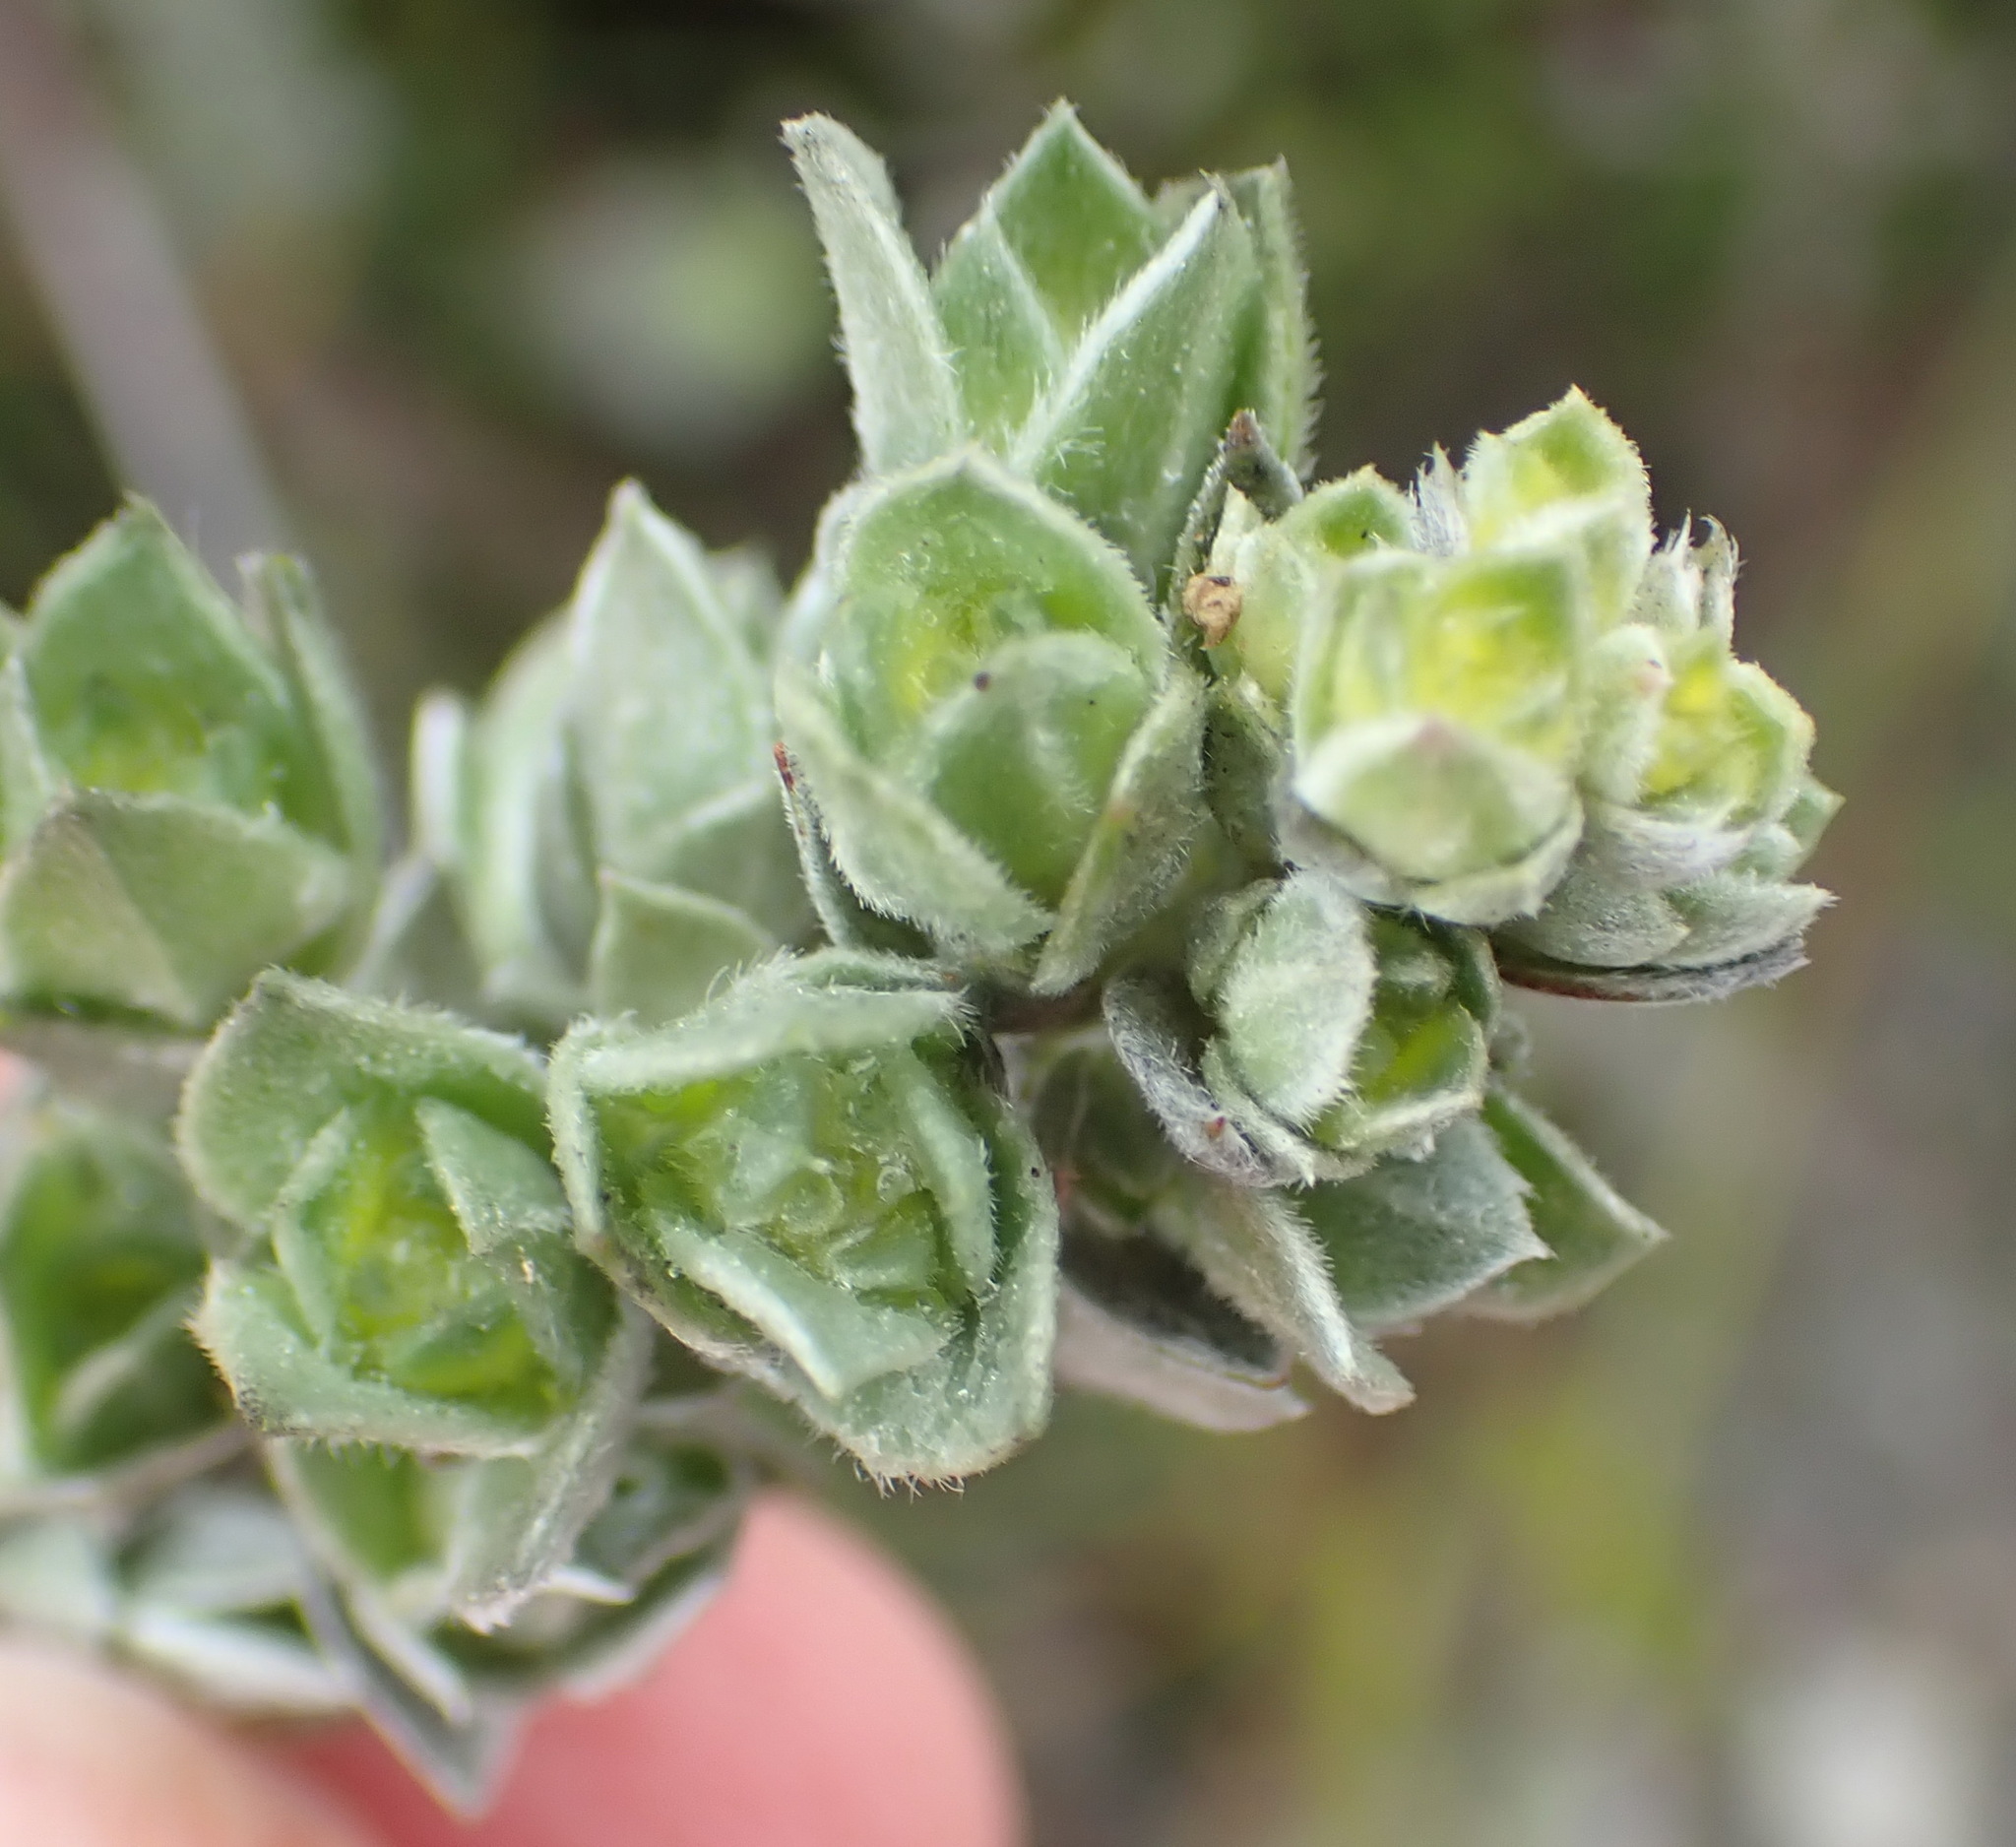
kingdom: Plantae
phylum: Tracheophyta
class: Magnoliopsida
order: Fabales
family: Fabaceae
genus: Amphithalea
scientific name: Amphithalea fourcadei
